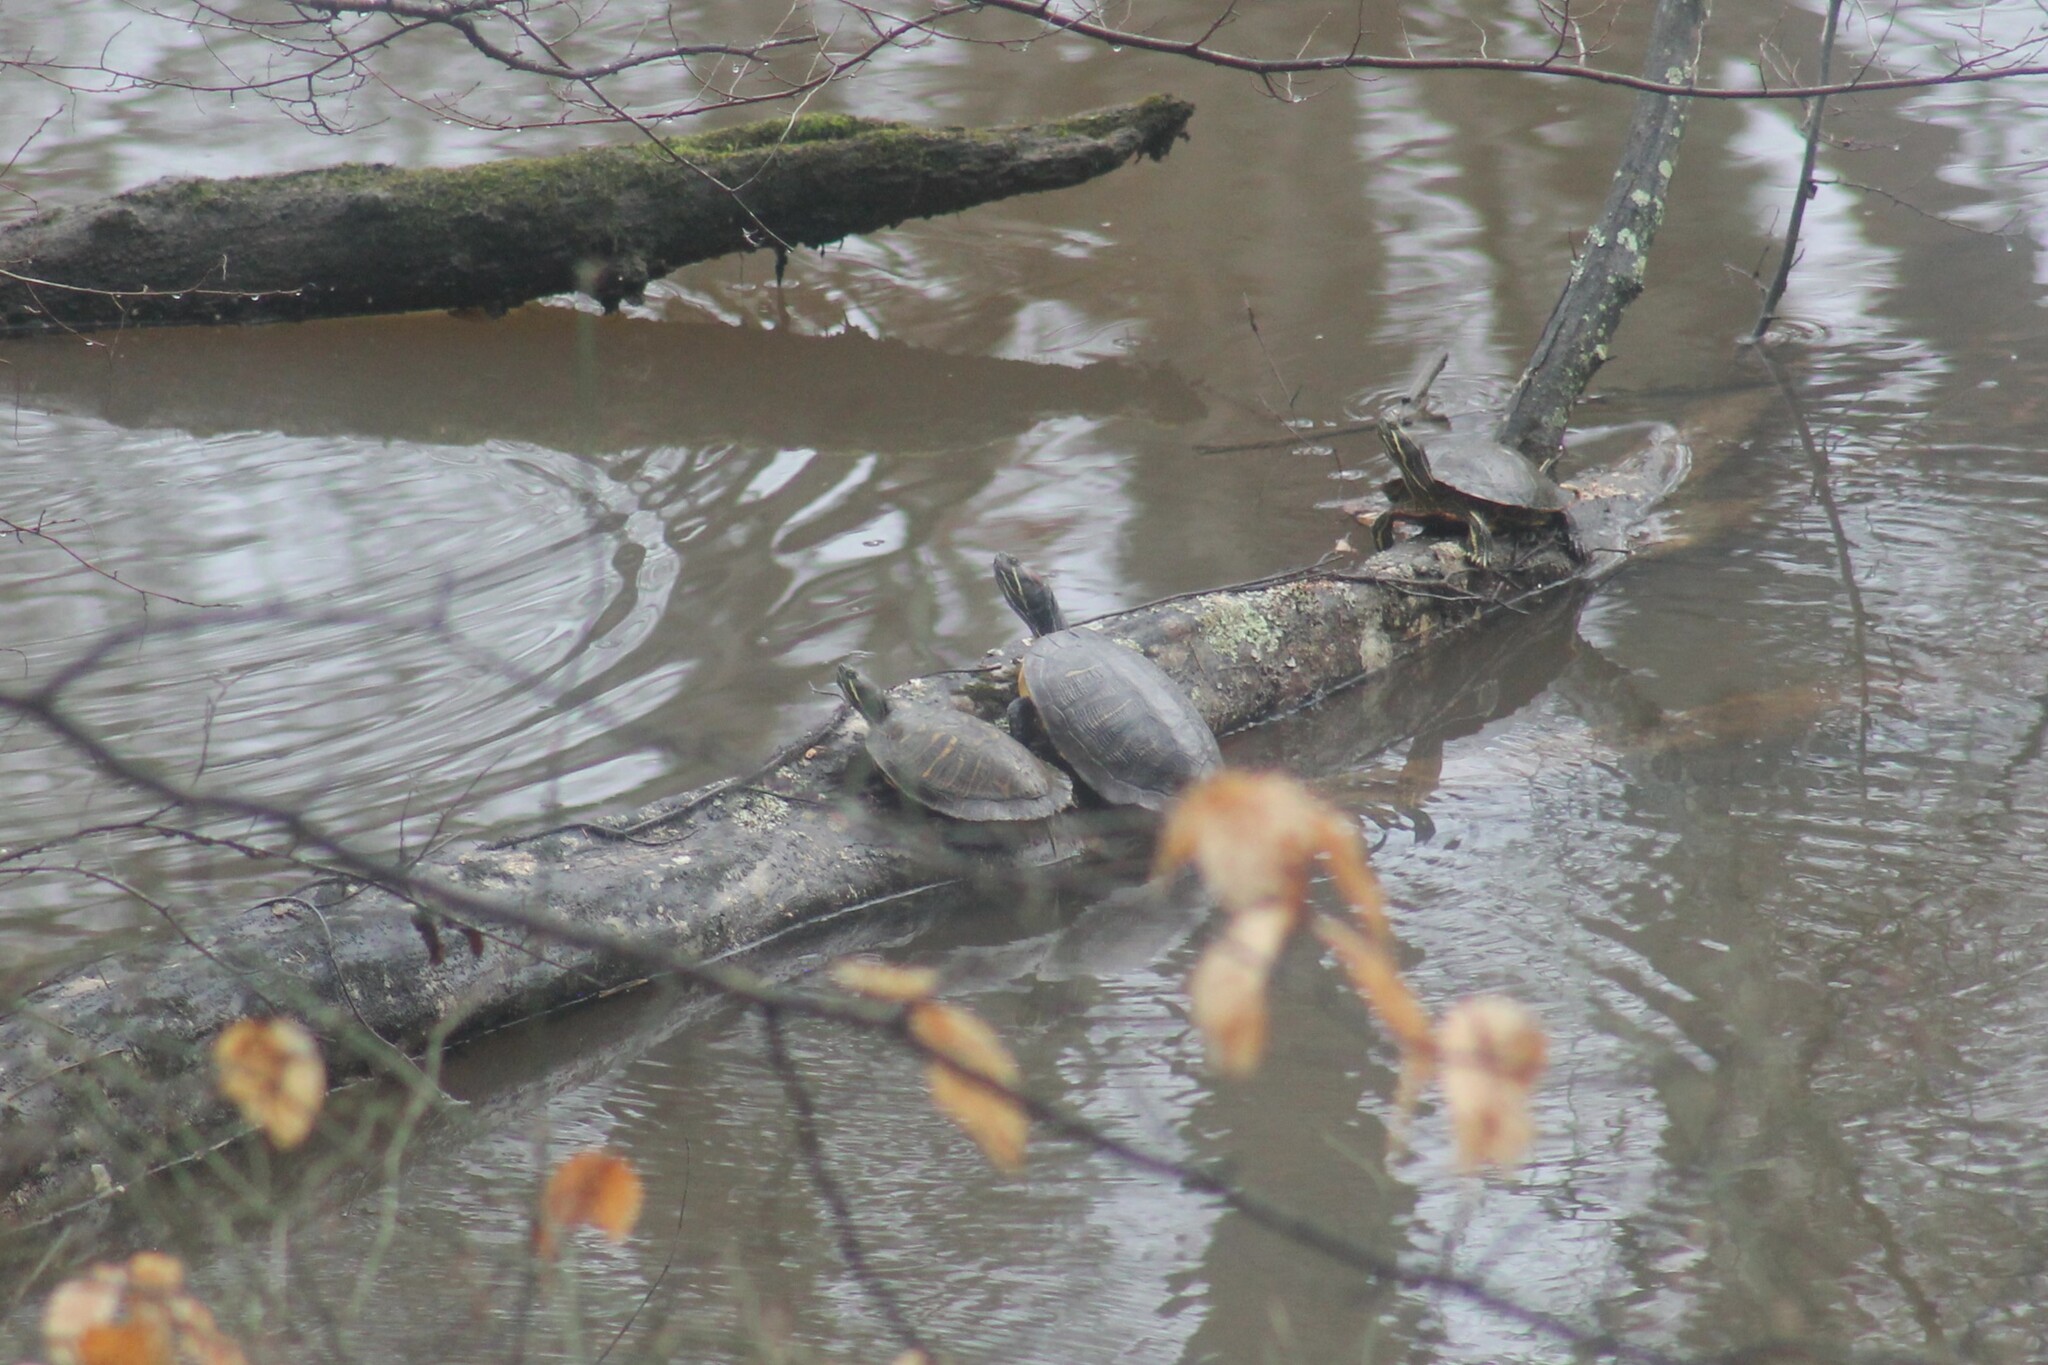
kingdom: Animalia
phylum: Chordata
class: Testudines
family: Emydidae
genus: Trachemys
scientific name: Trachemys scripta
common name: Slider
